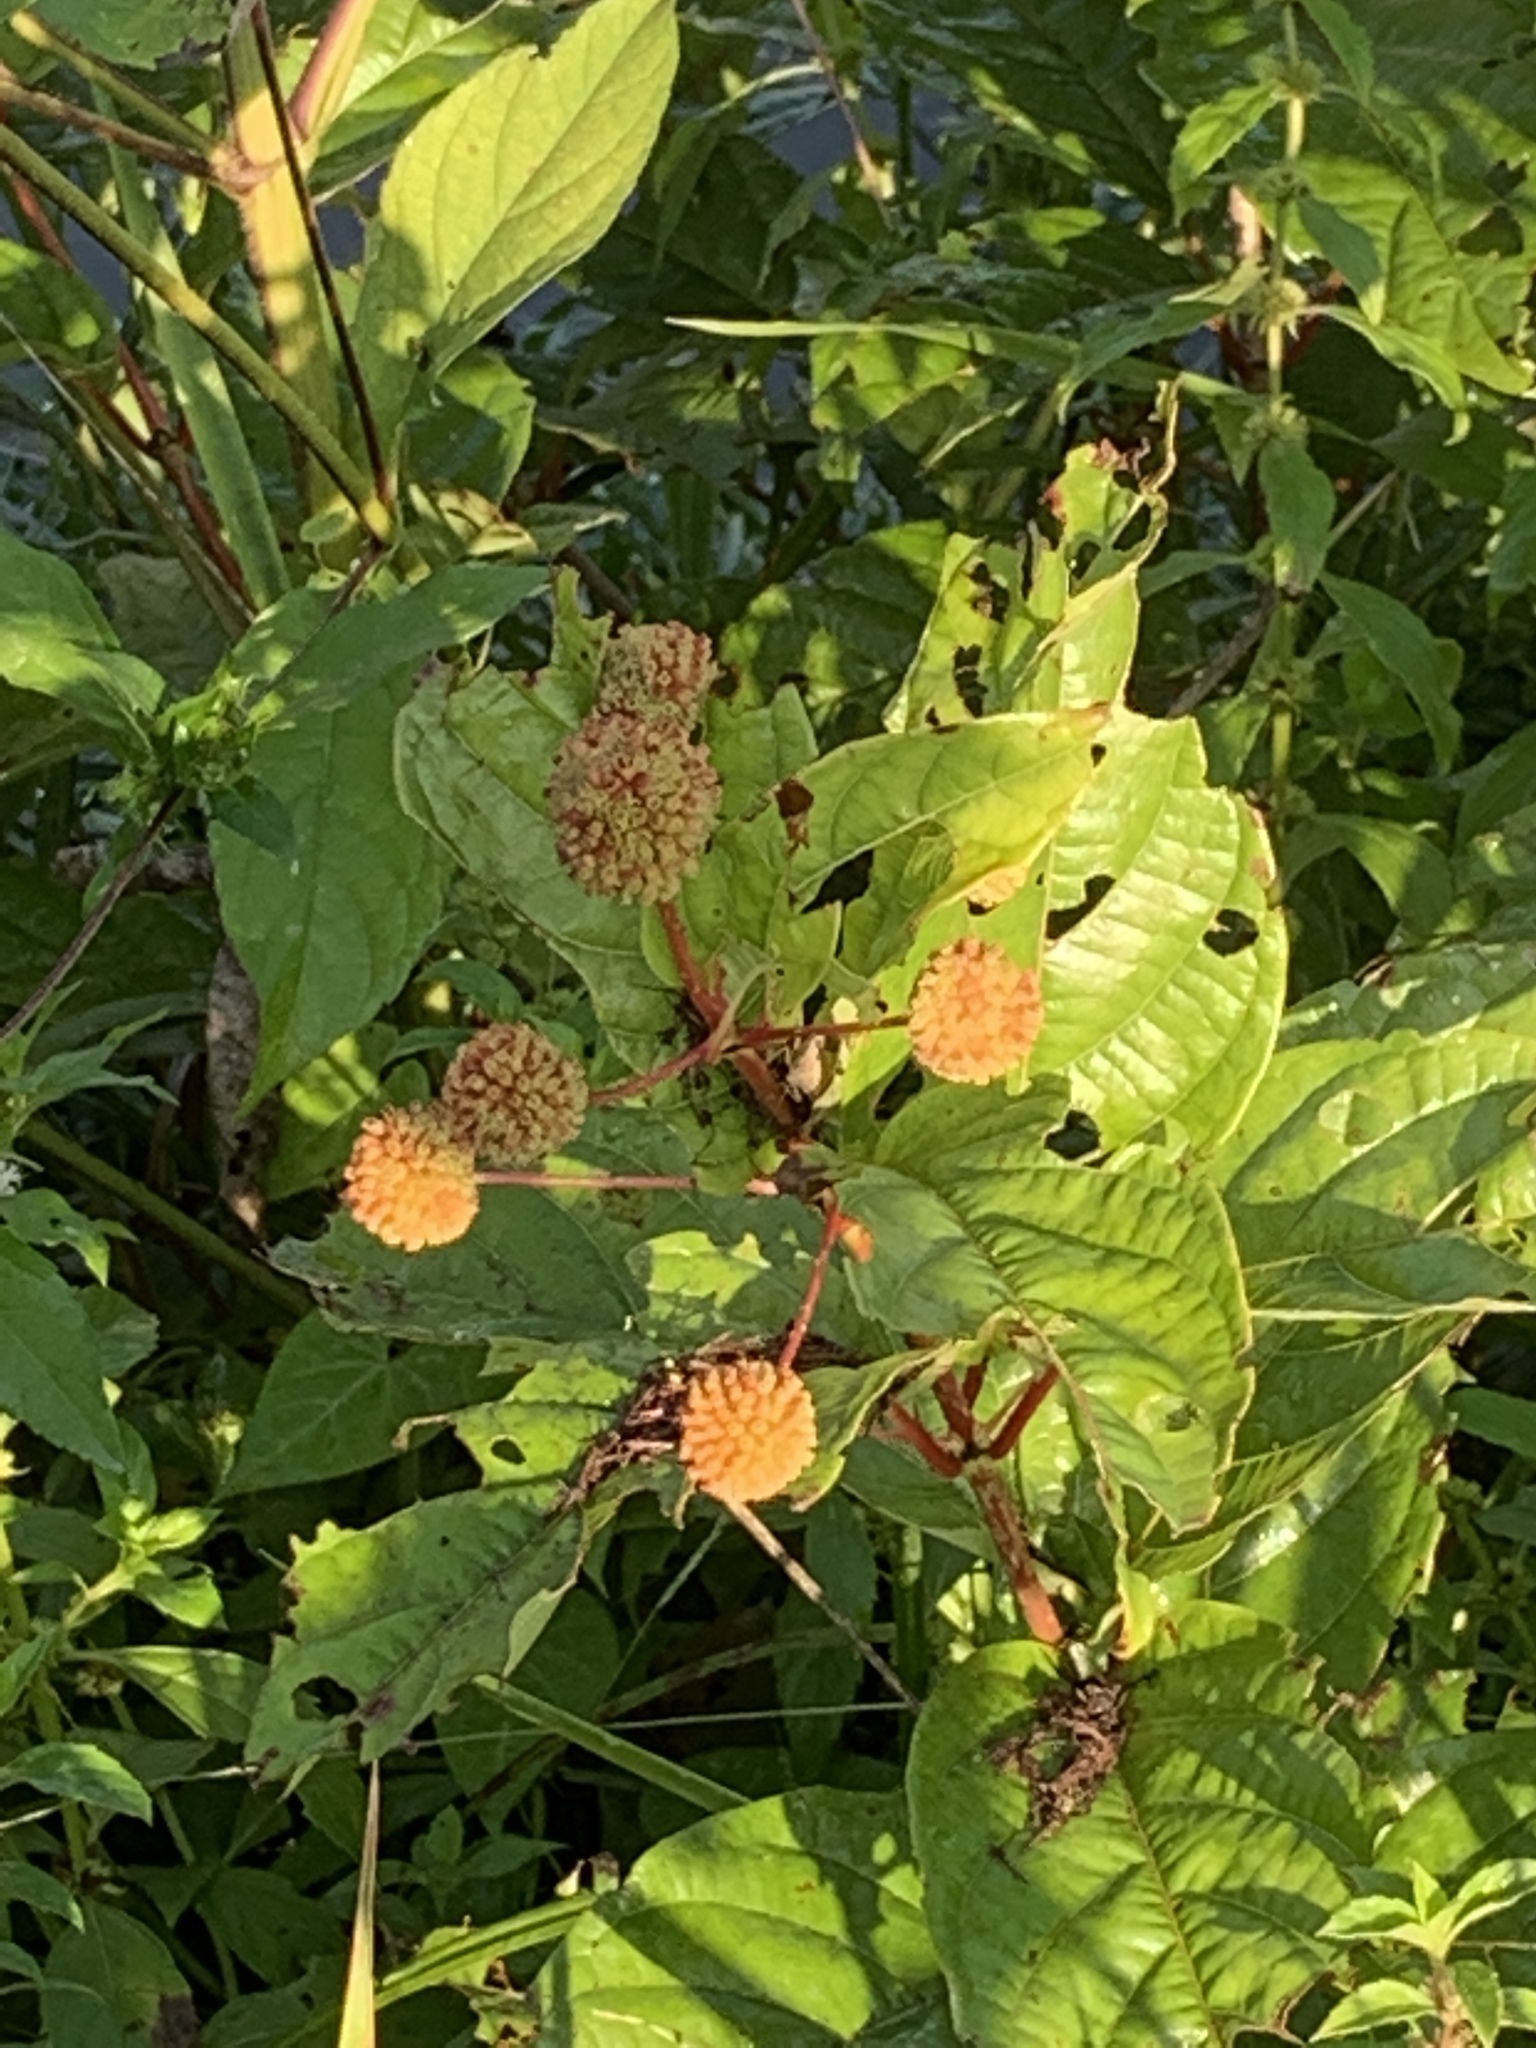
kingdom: Plantae
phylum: Tracheophyta
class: Magnoliopsida
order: Gentianales
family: Rubiaceae
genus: Cephalanthus
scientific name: Cephalanthus occidentalis
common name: Button-willow
